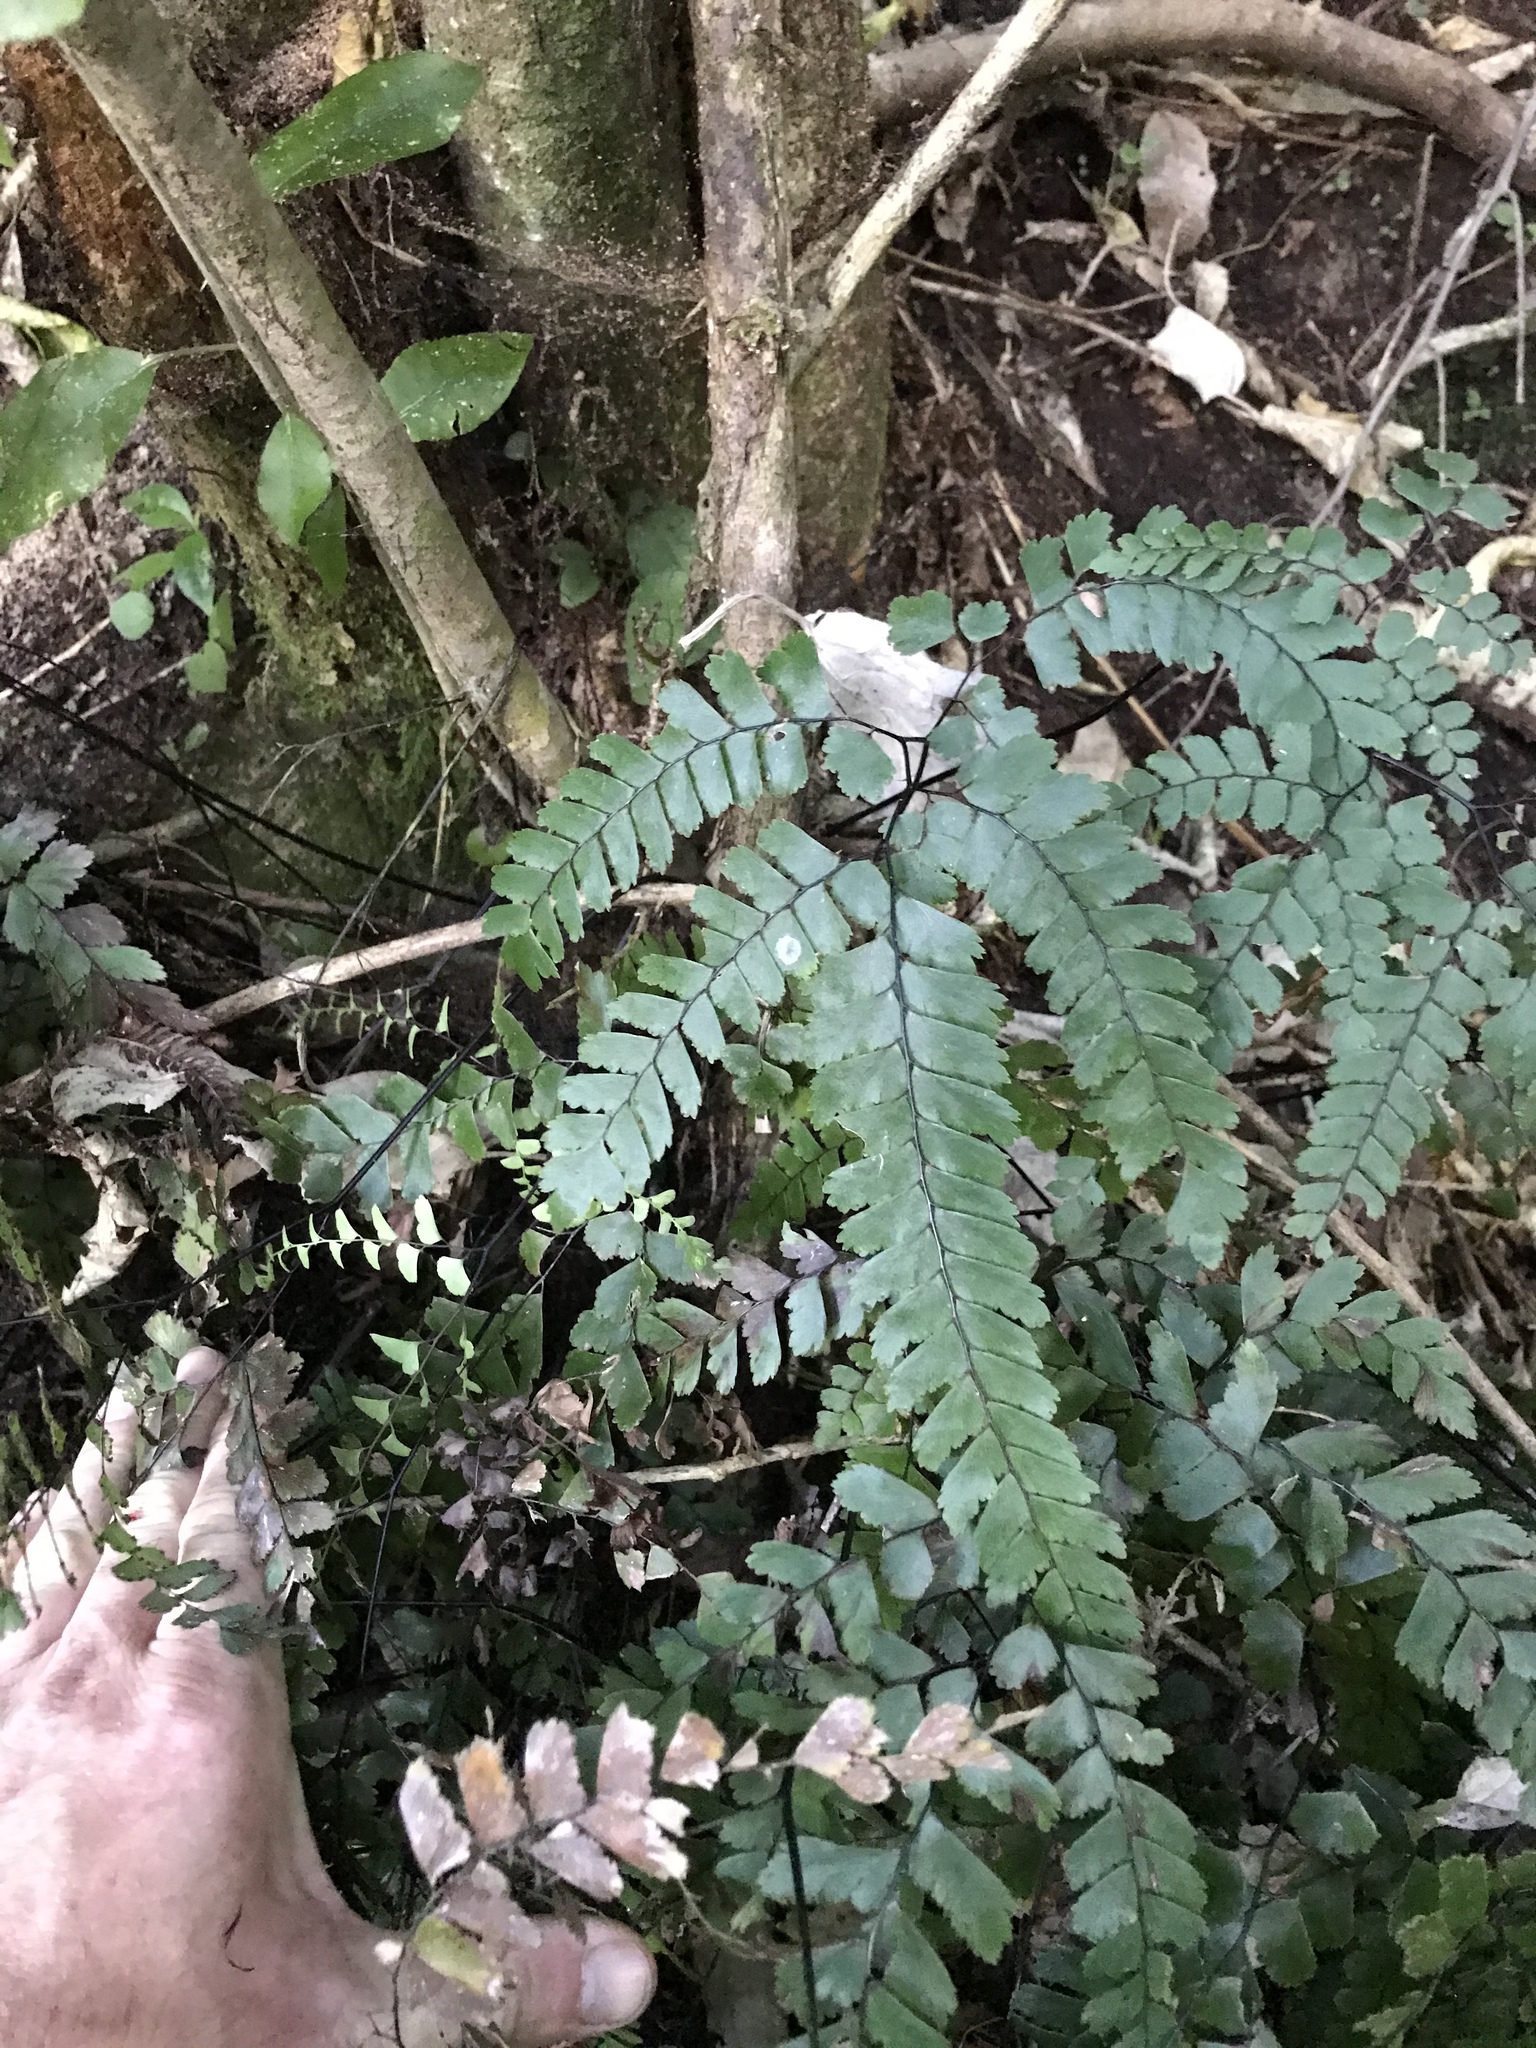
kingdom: Plantae
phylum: Tracheophyta
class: Polypodiopsida
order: Polypodiales
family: Pteridaceae
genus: Adiantum
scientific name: Adiantum cunninghamii
